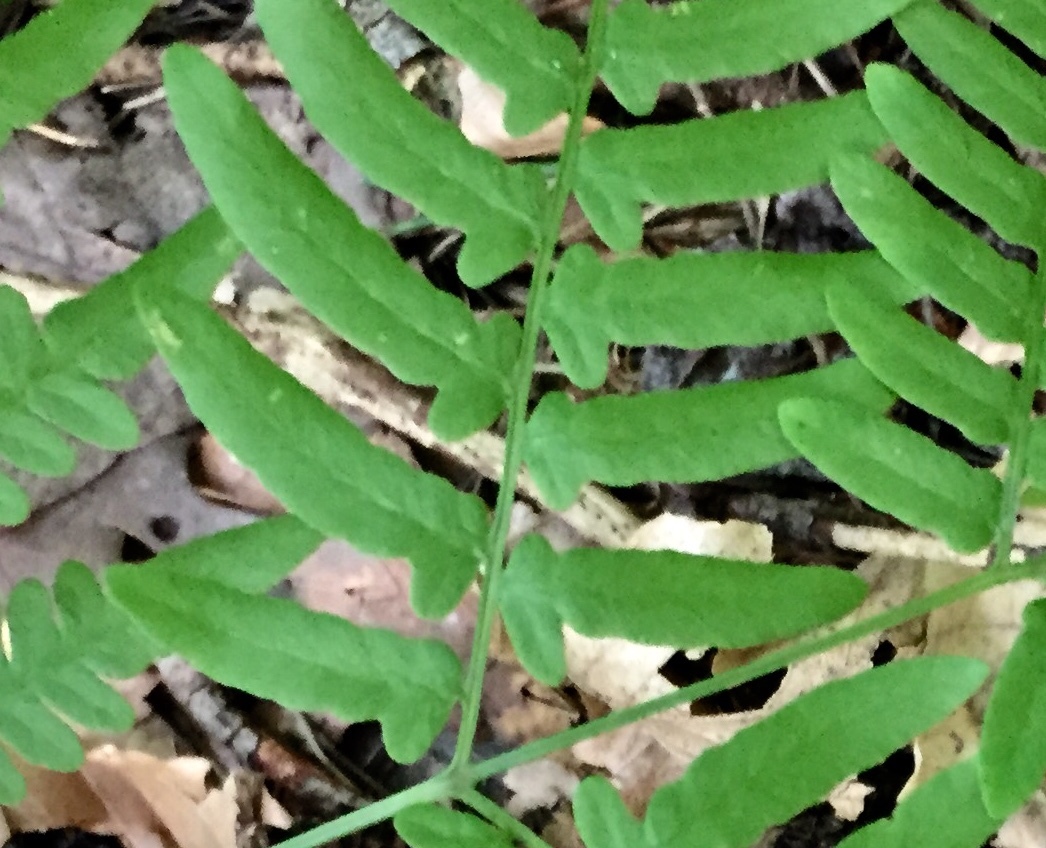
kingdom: Plantae
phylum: Tracheophyta
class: Polypodiopsida
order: Polypodiales
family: Dennstaedtiaceae
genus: Pteridium
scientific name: Pteridium aquilinum
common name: Bracken
